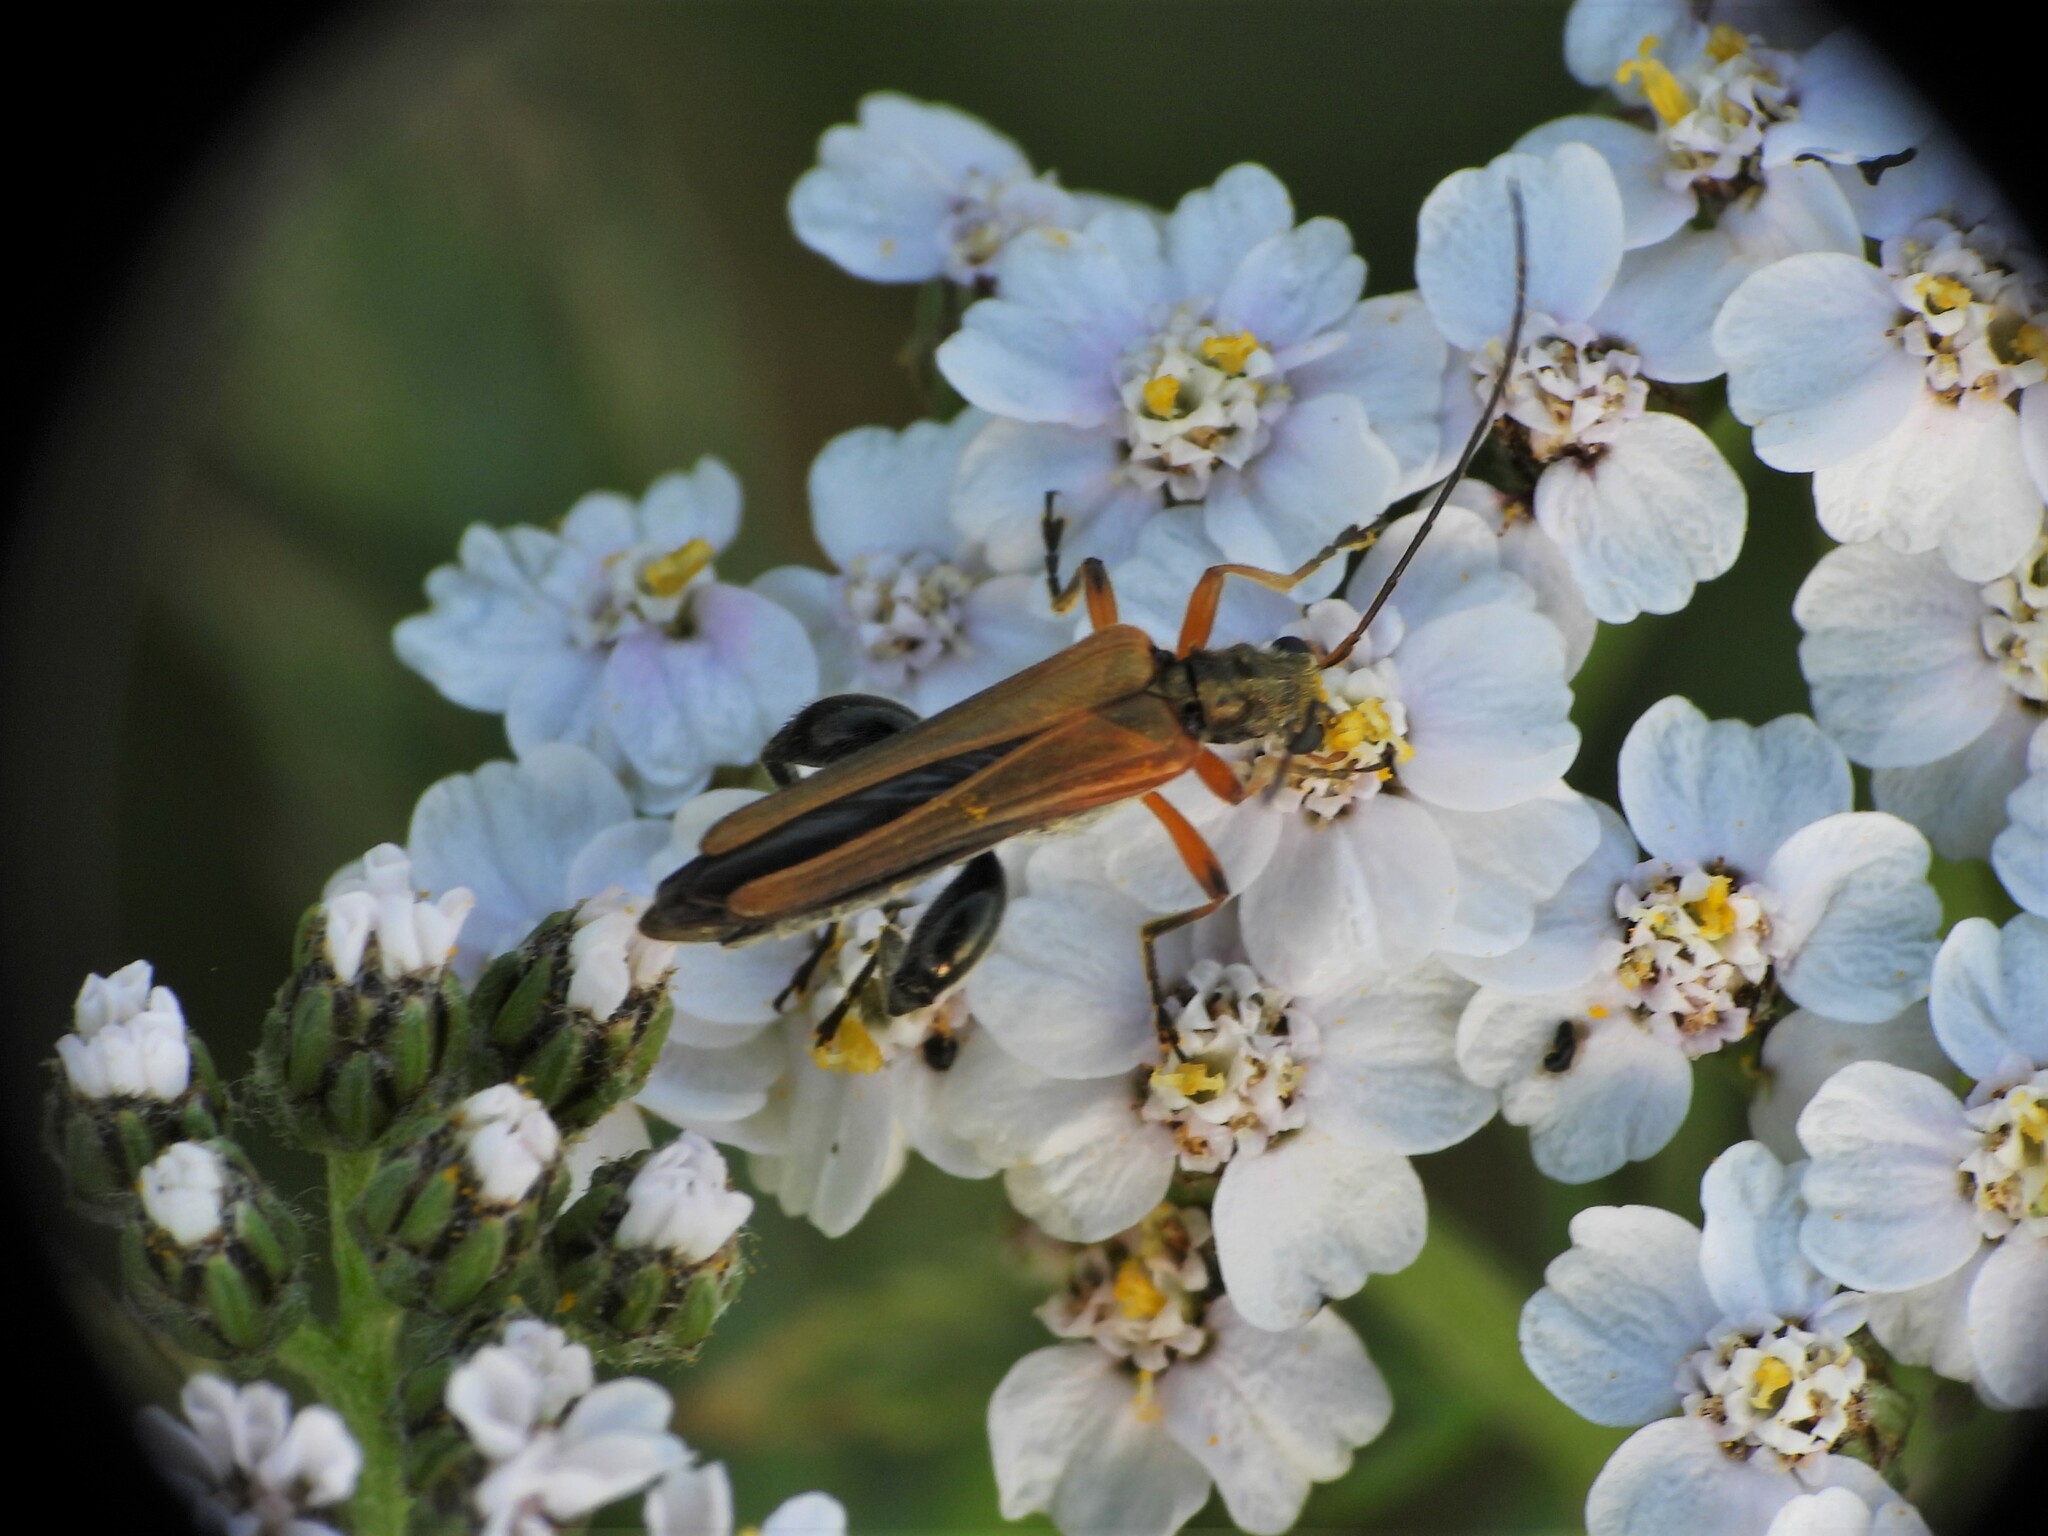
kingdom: Animalia
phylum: Arthropoda
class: Insecta
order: Coleoptera
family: Oedemeridae
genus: Oedemera
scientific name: Oedemera podagrariae
